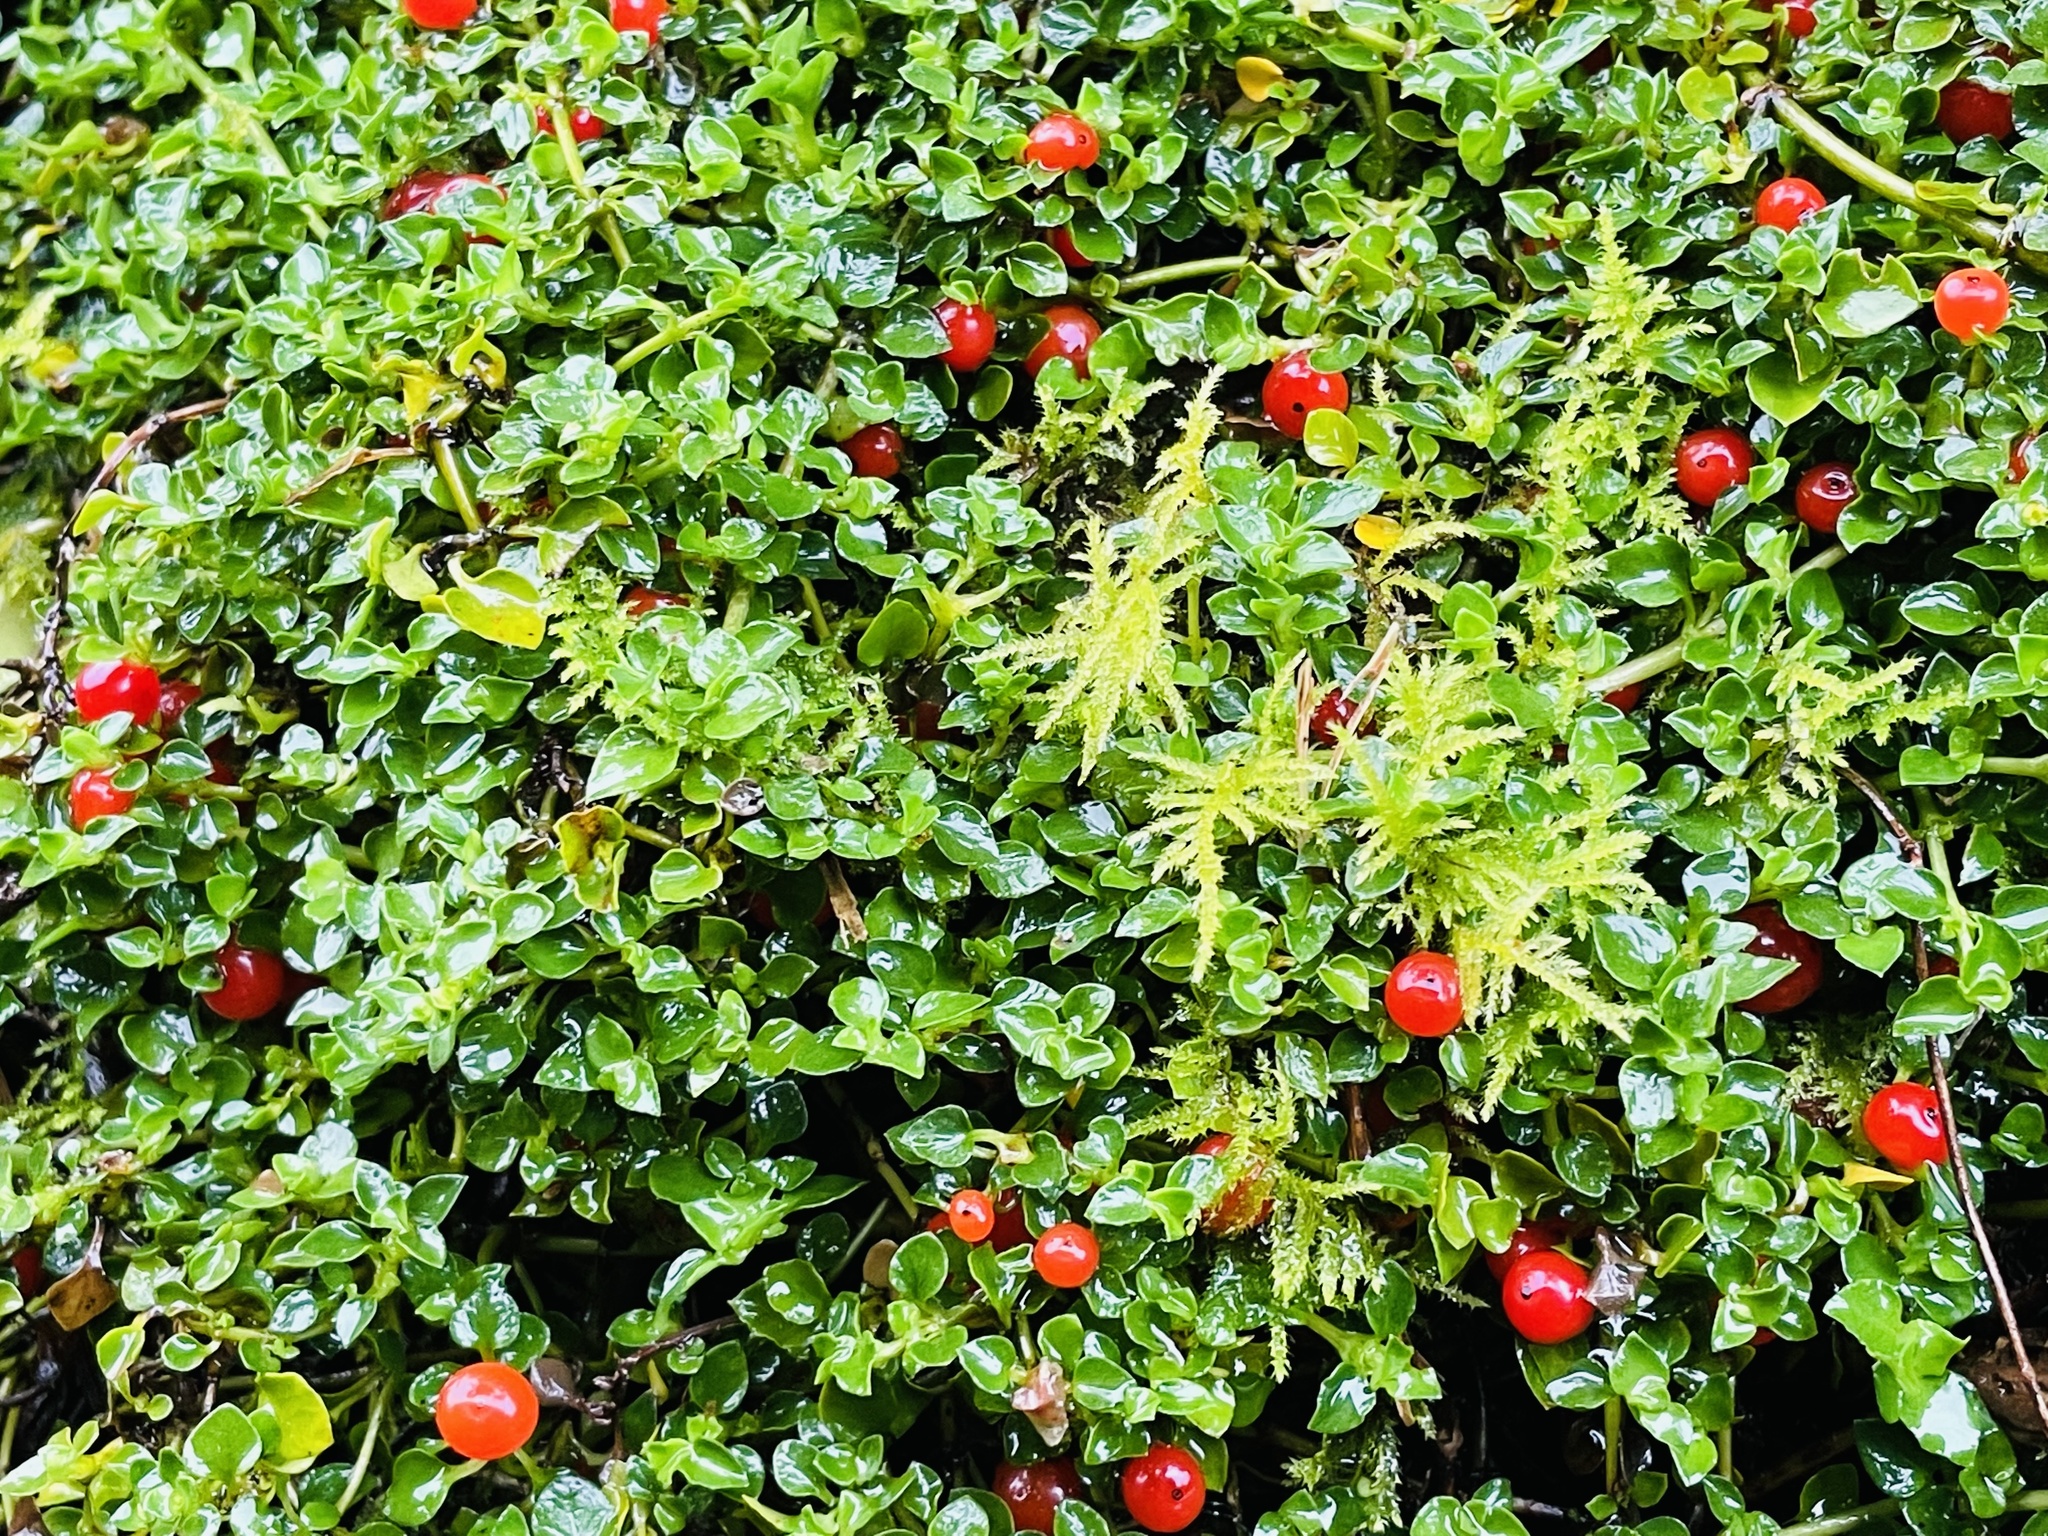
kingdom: Plantae
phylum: Tracheophyta
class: Magnoliopsida
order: Gentianales
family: Rubiaceae
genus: Nertera
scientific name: Nertera granadensis
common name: Beadplant
